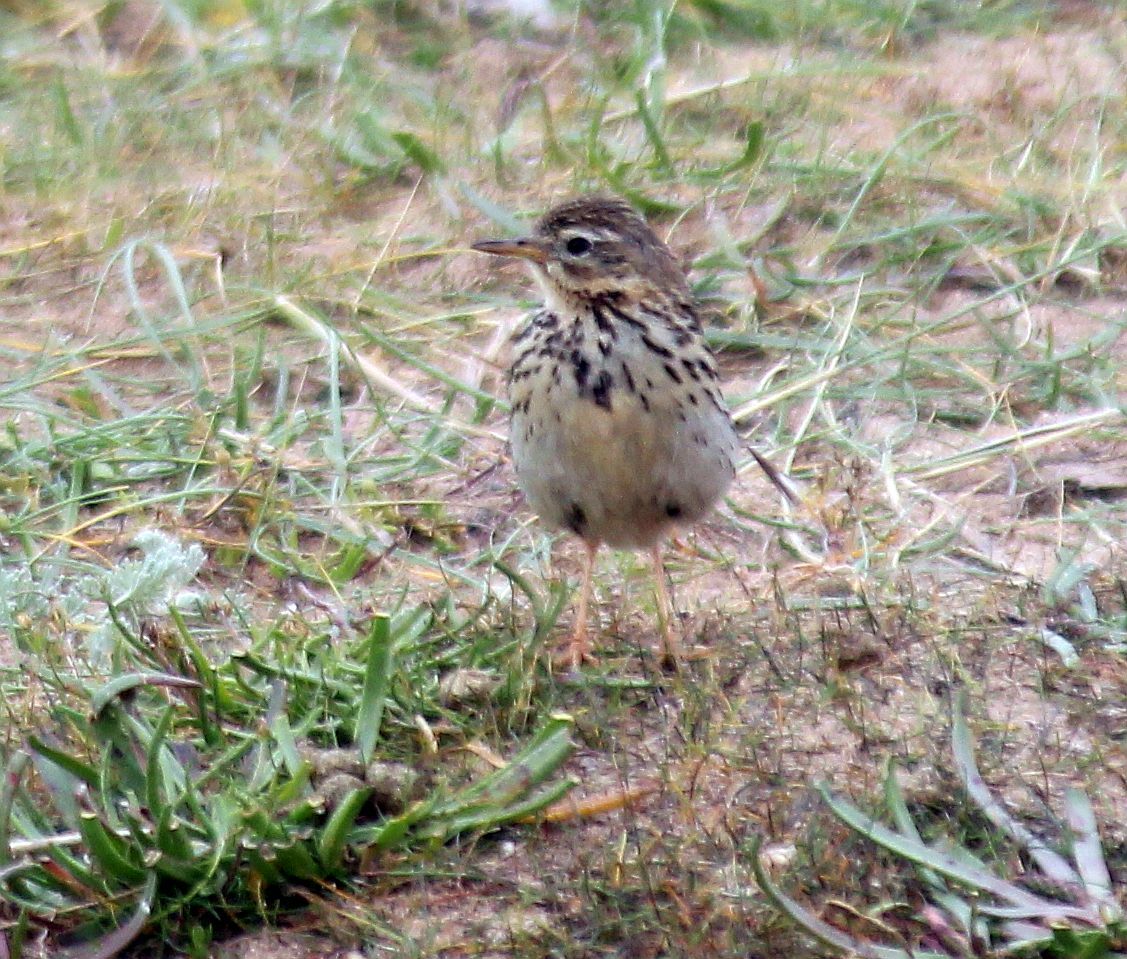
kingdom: Animalia
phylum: Chordata
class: Aves
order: Passeriformes
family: Motacillidae
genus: Anthus
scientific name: Anthus pratensis
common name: Meadow pipit
